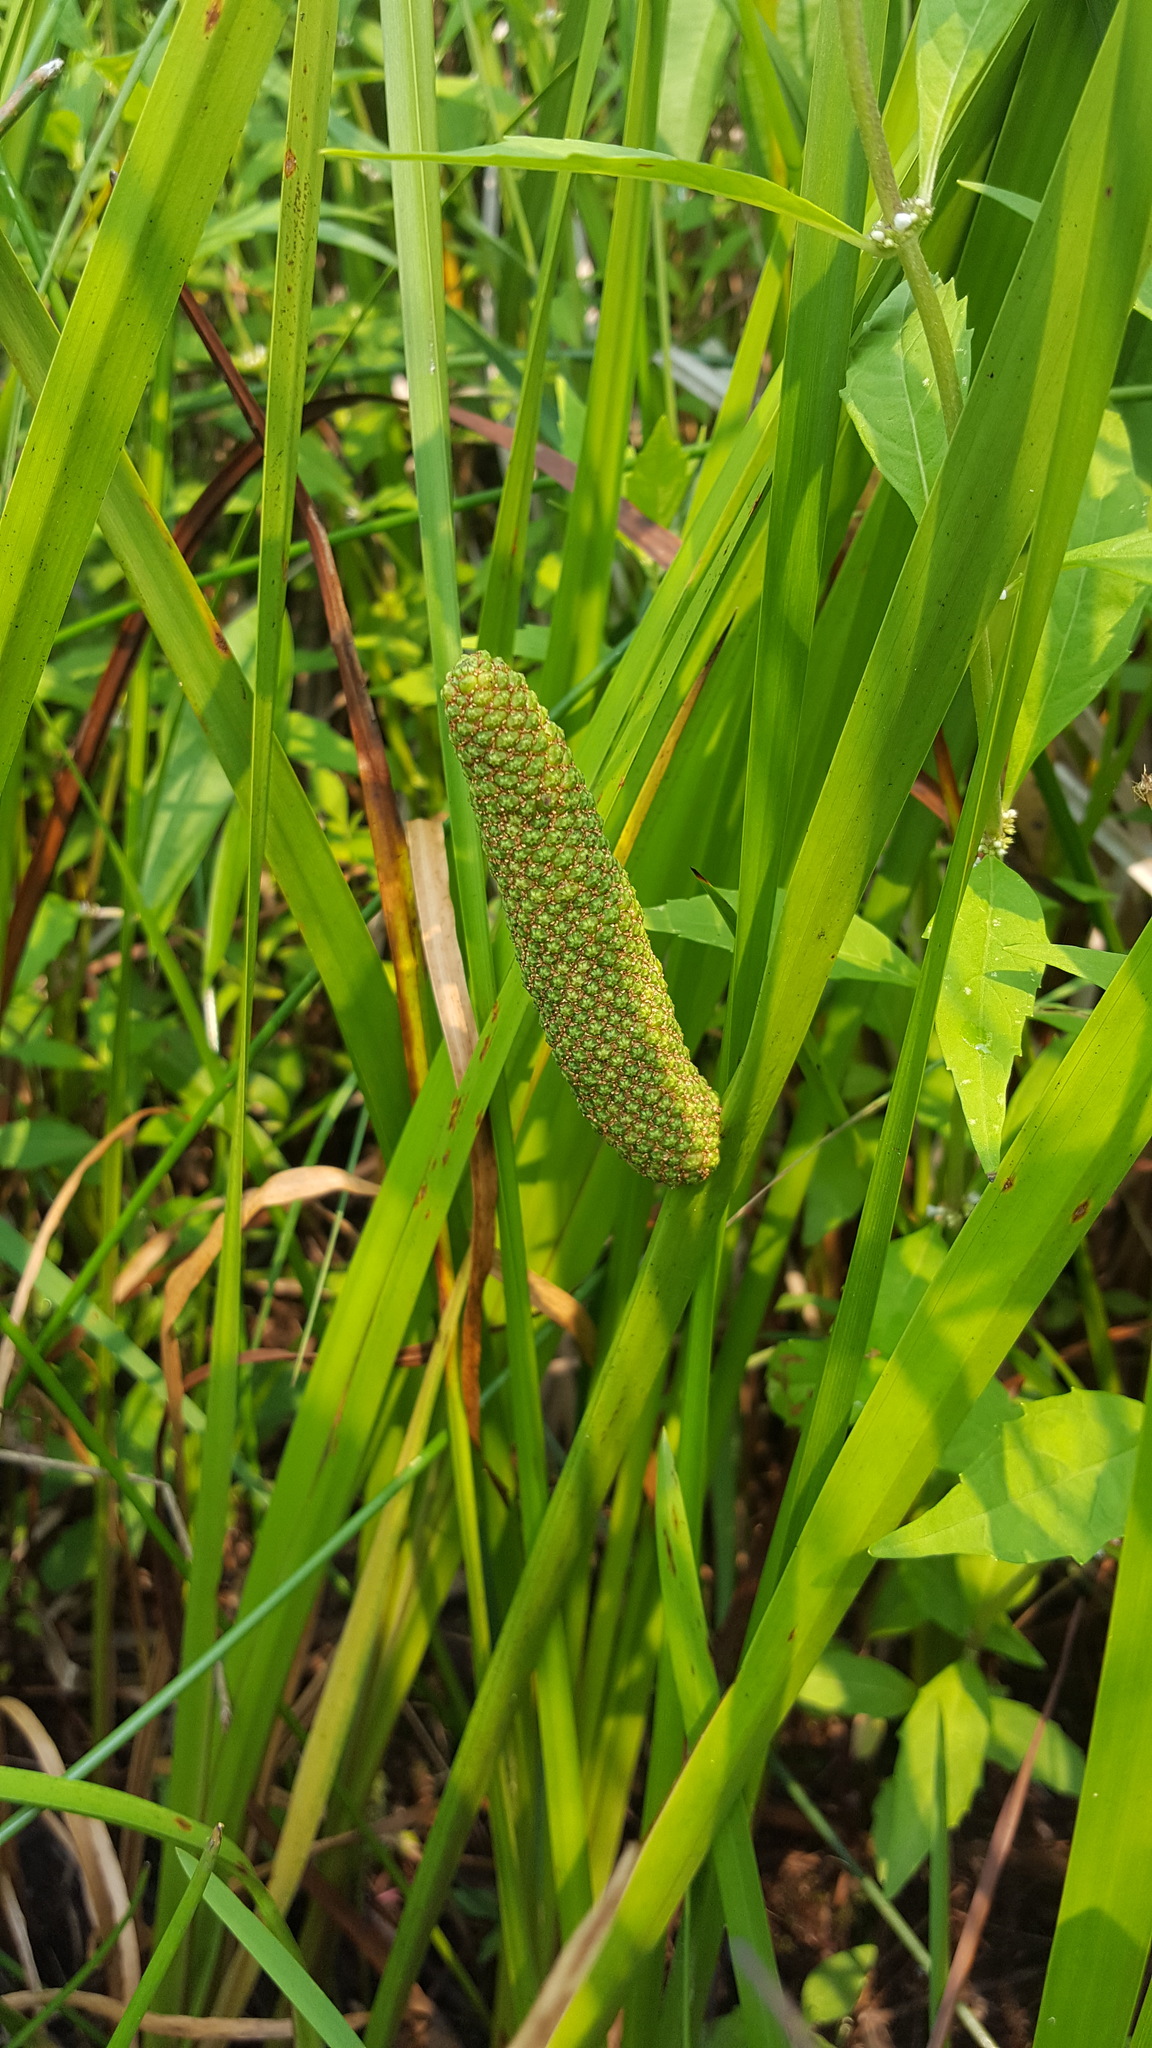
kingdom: Plantae
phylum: Tracheophyta
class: Liliopsida
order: Acorales
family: Acoraceae
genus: Acorus
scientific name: Acorus calamus
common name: Sweet-flag
